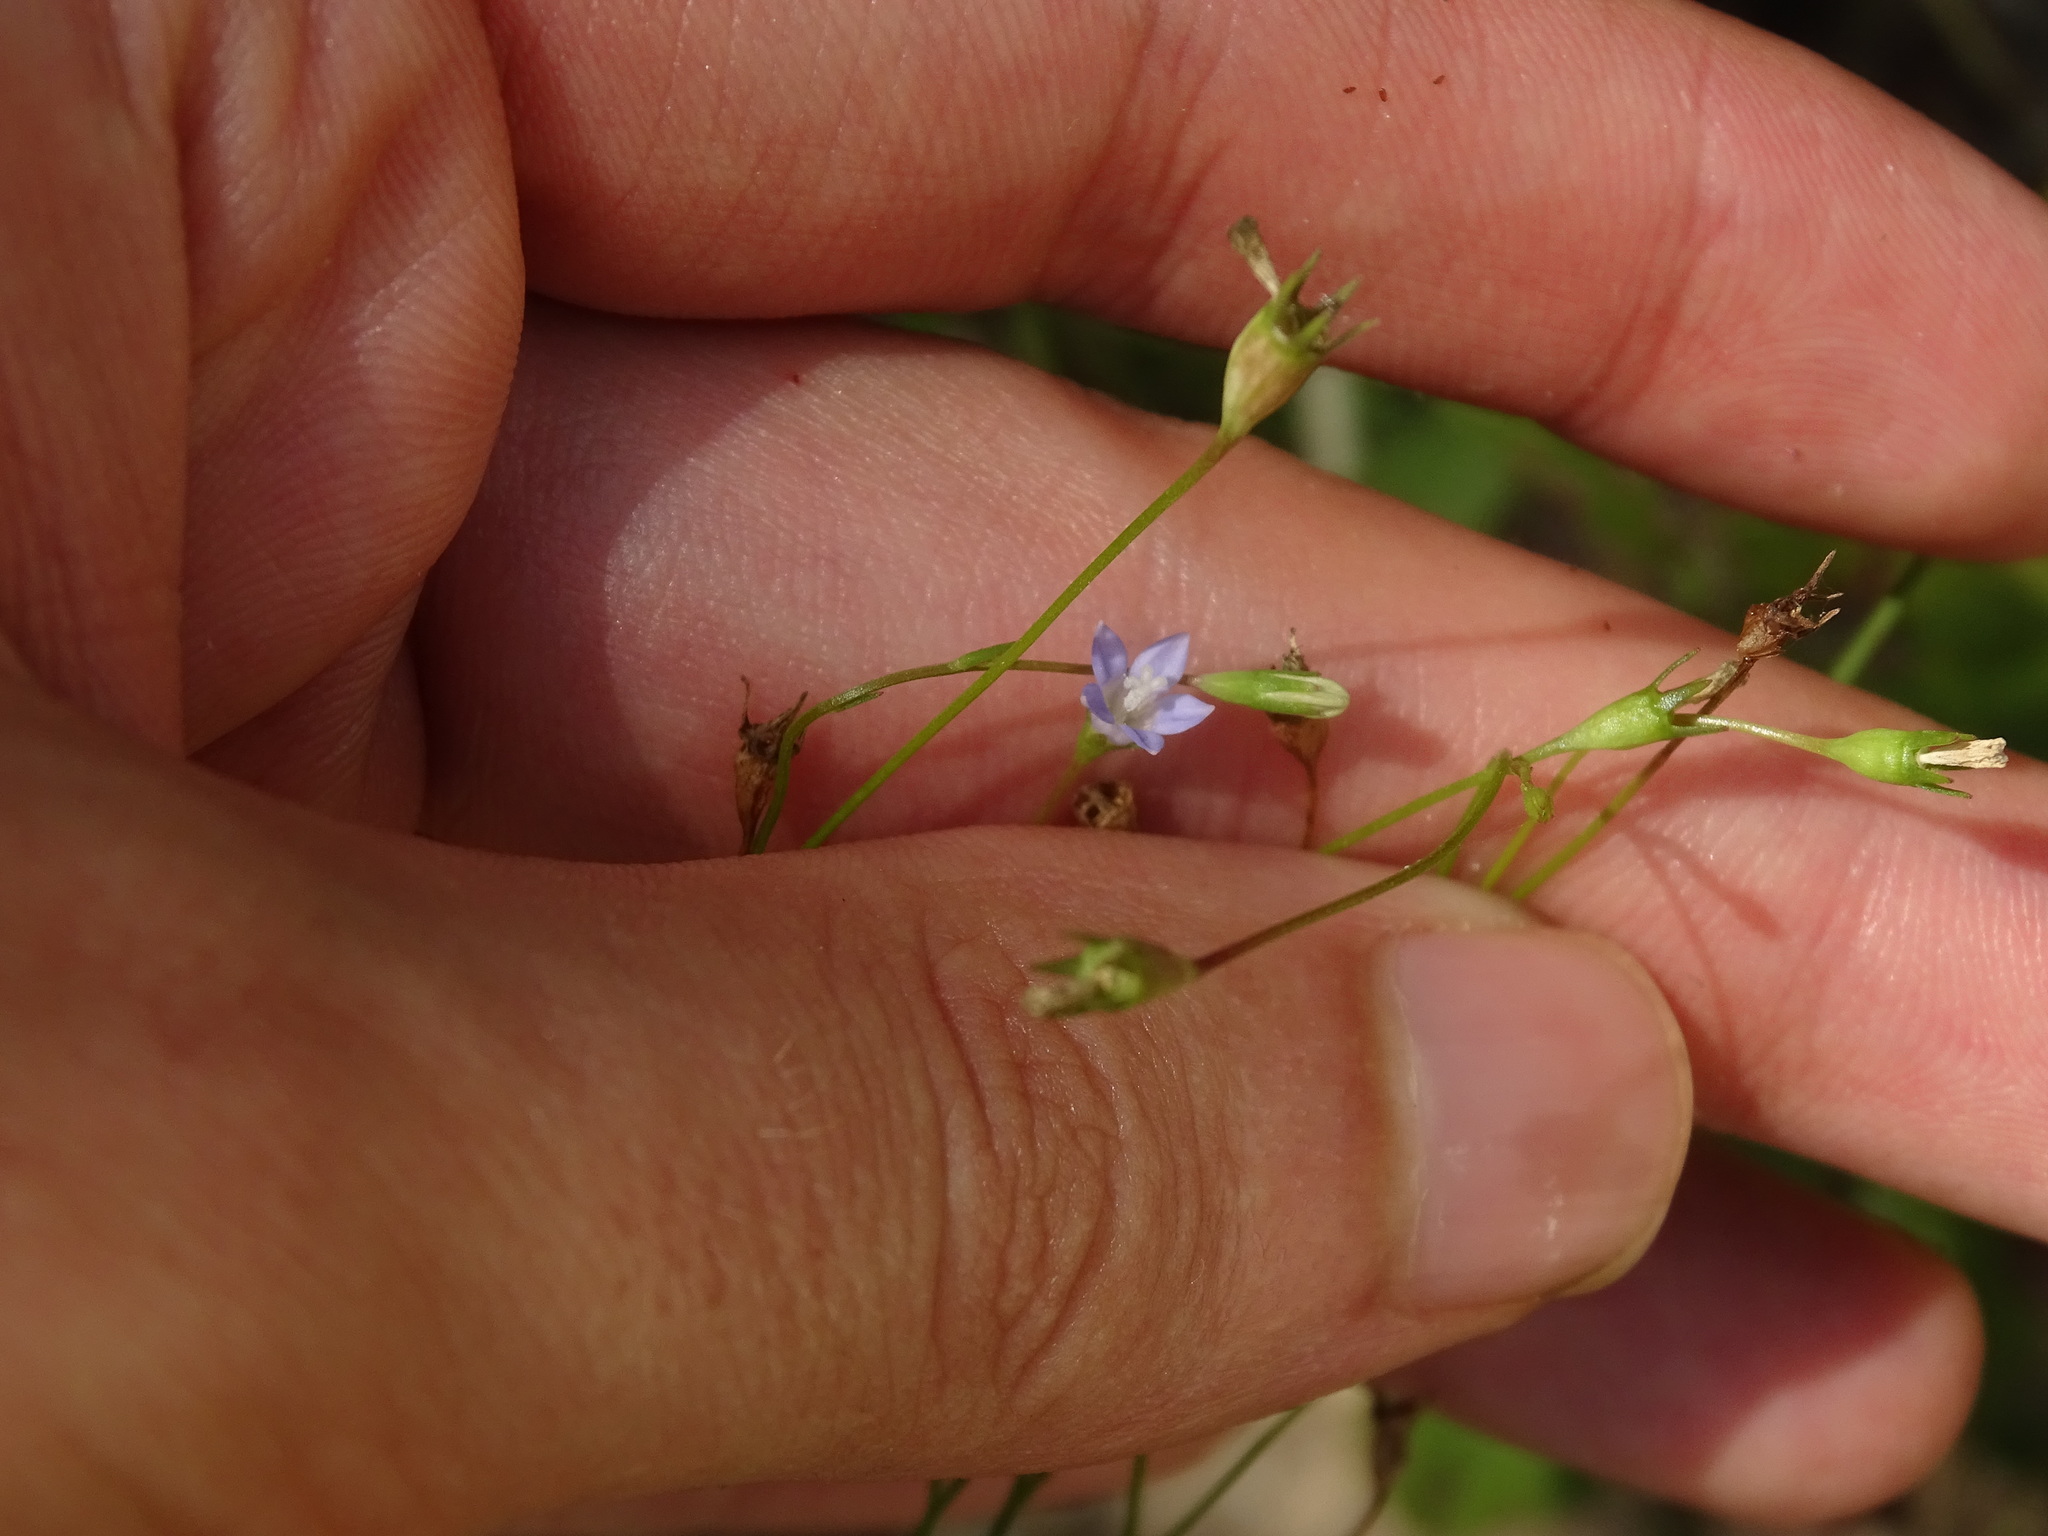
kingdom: Plantae
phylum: Tracheophyta
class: Magnoliopsida
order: Asterales
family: Campanulaceae
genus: Wahlenbergia
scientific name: Wahlenbergia marginata
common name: Southern rockbell
